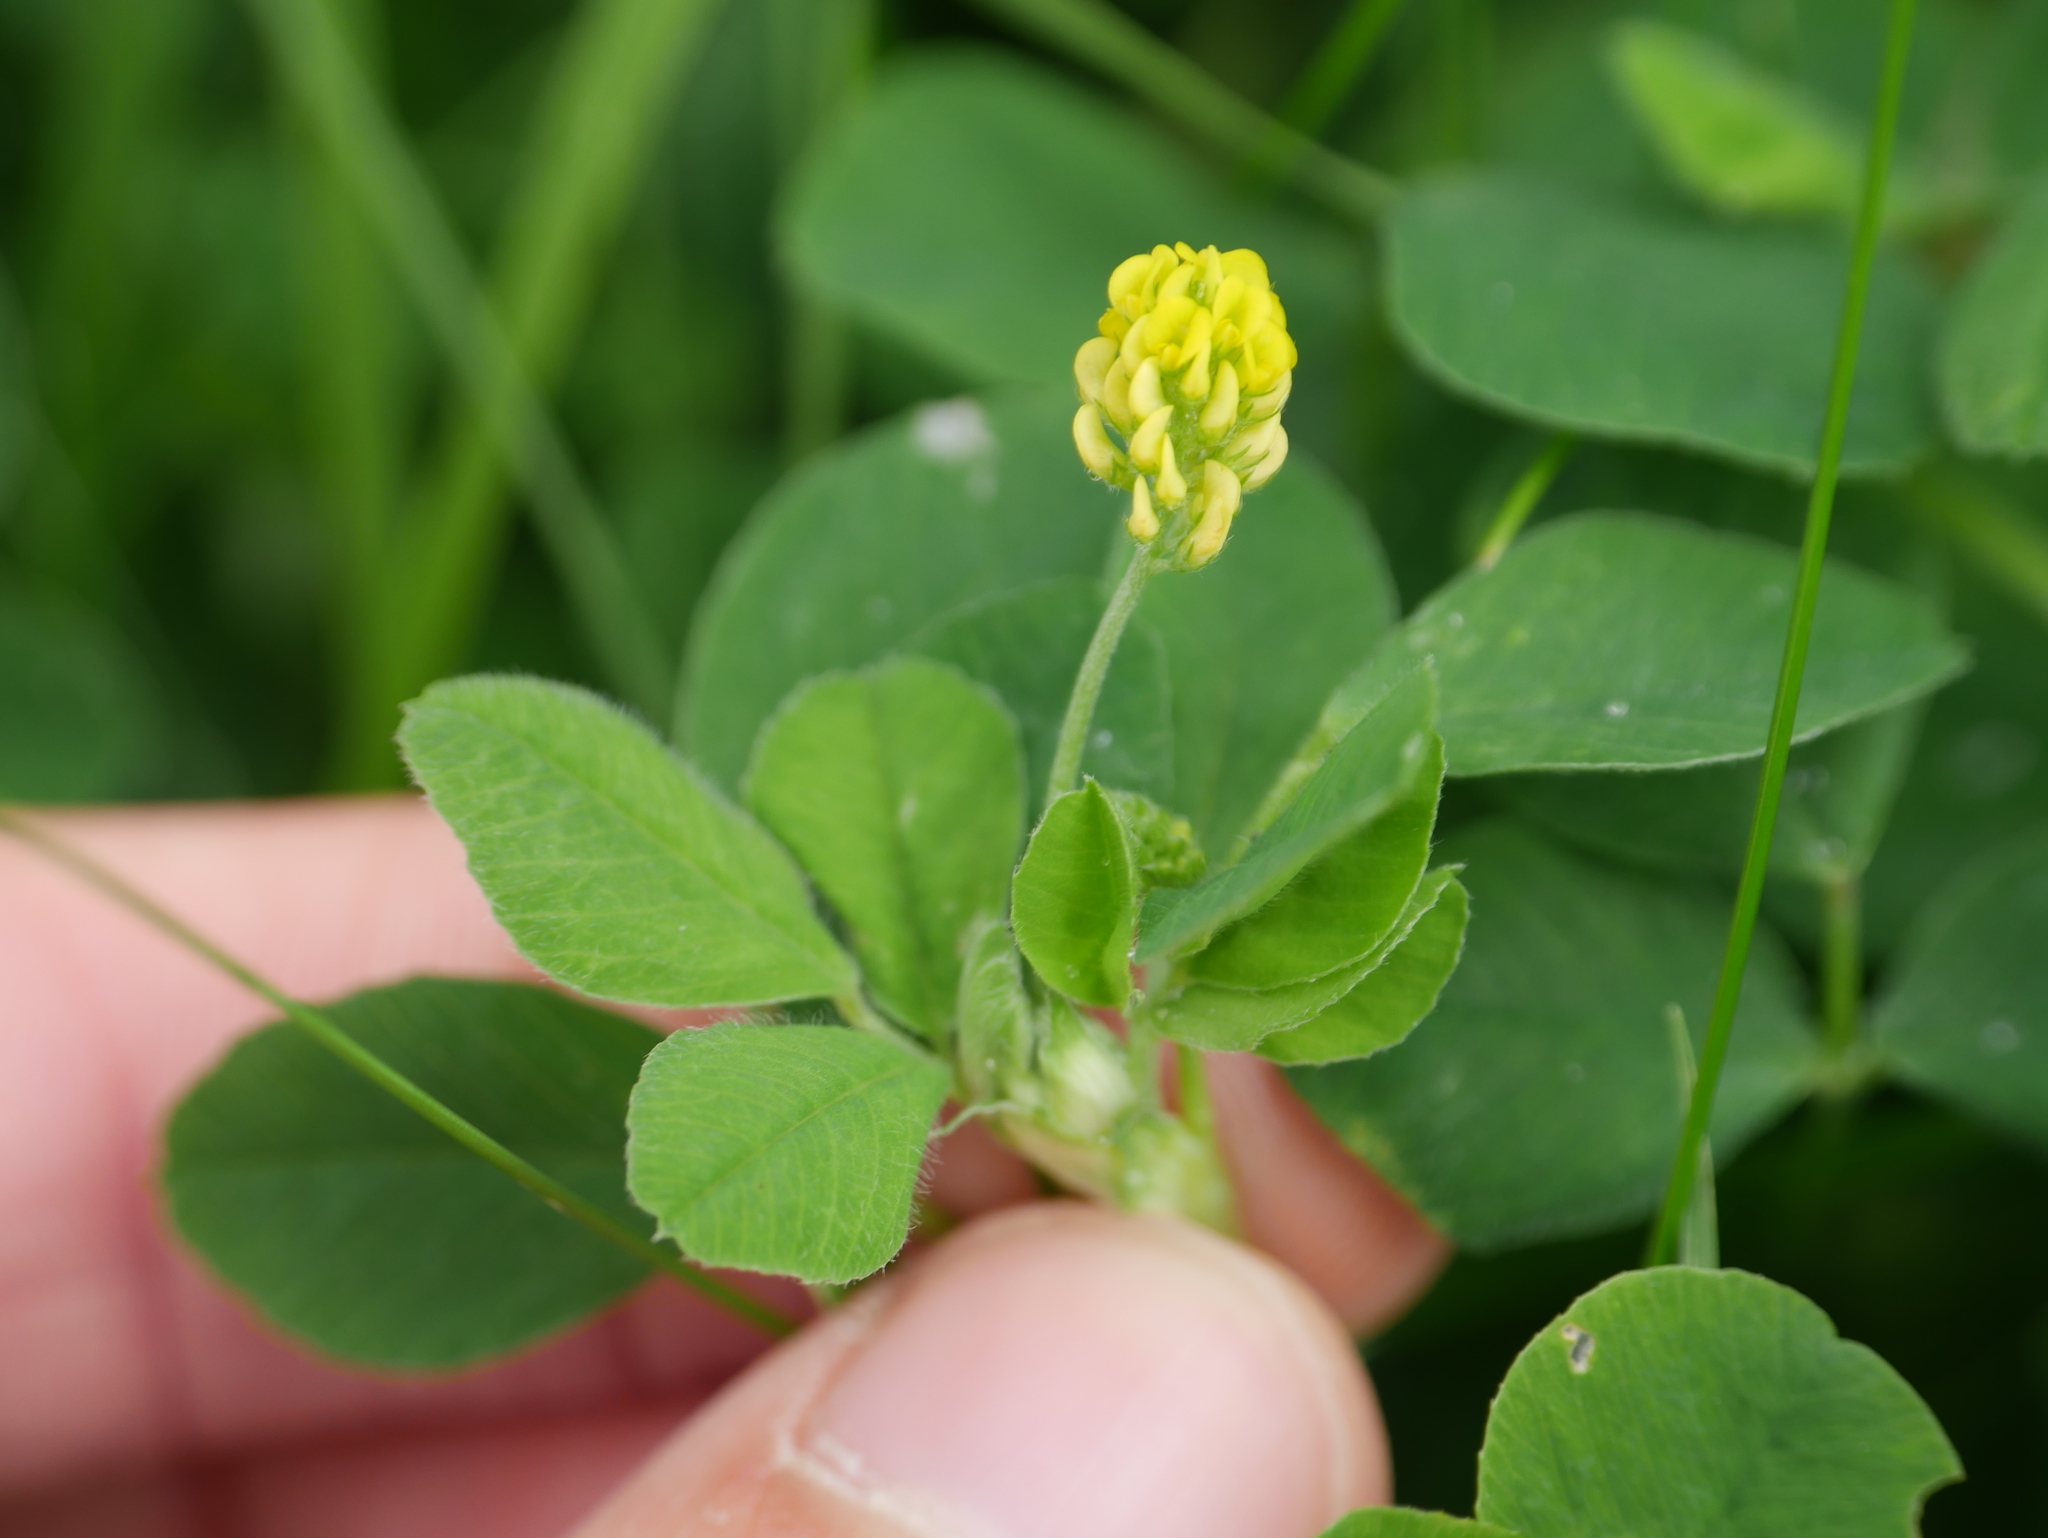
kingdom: Plantae
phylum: Tracheophyta
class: Magnoliopsida
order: Fabales
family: Fabaceae
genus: Medicago
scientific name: Medicago lupulina
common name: Black medick
